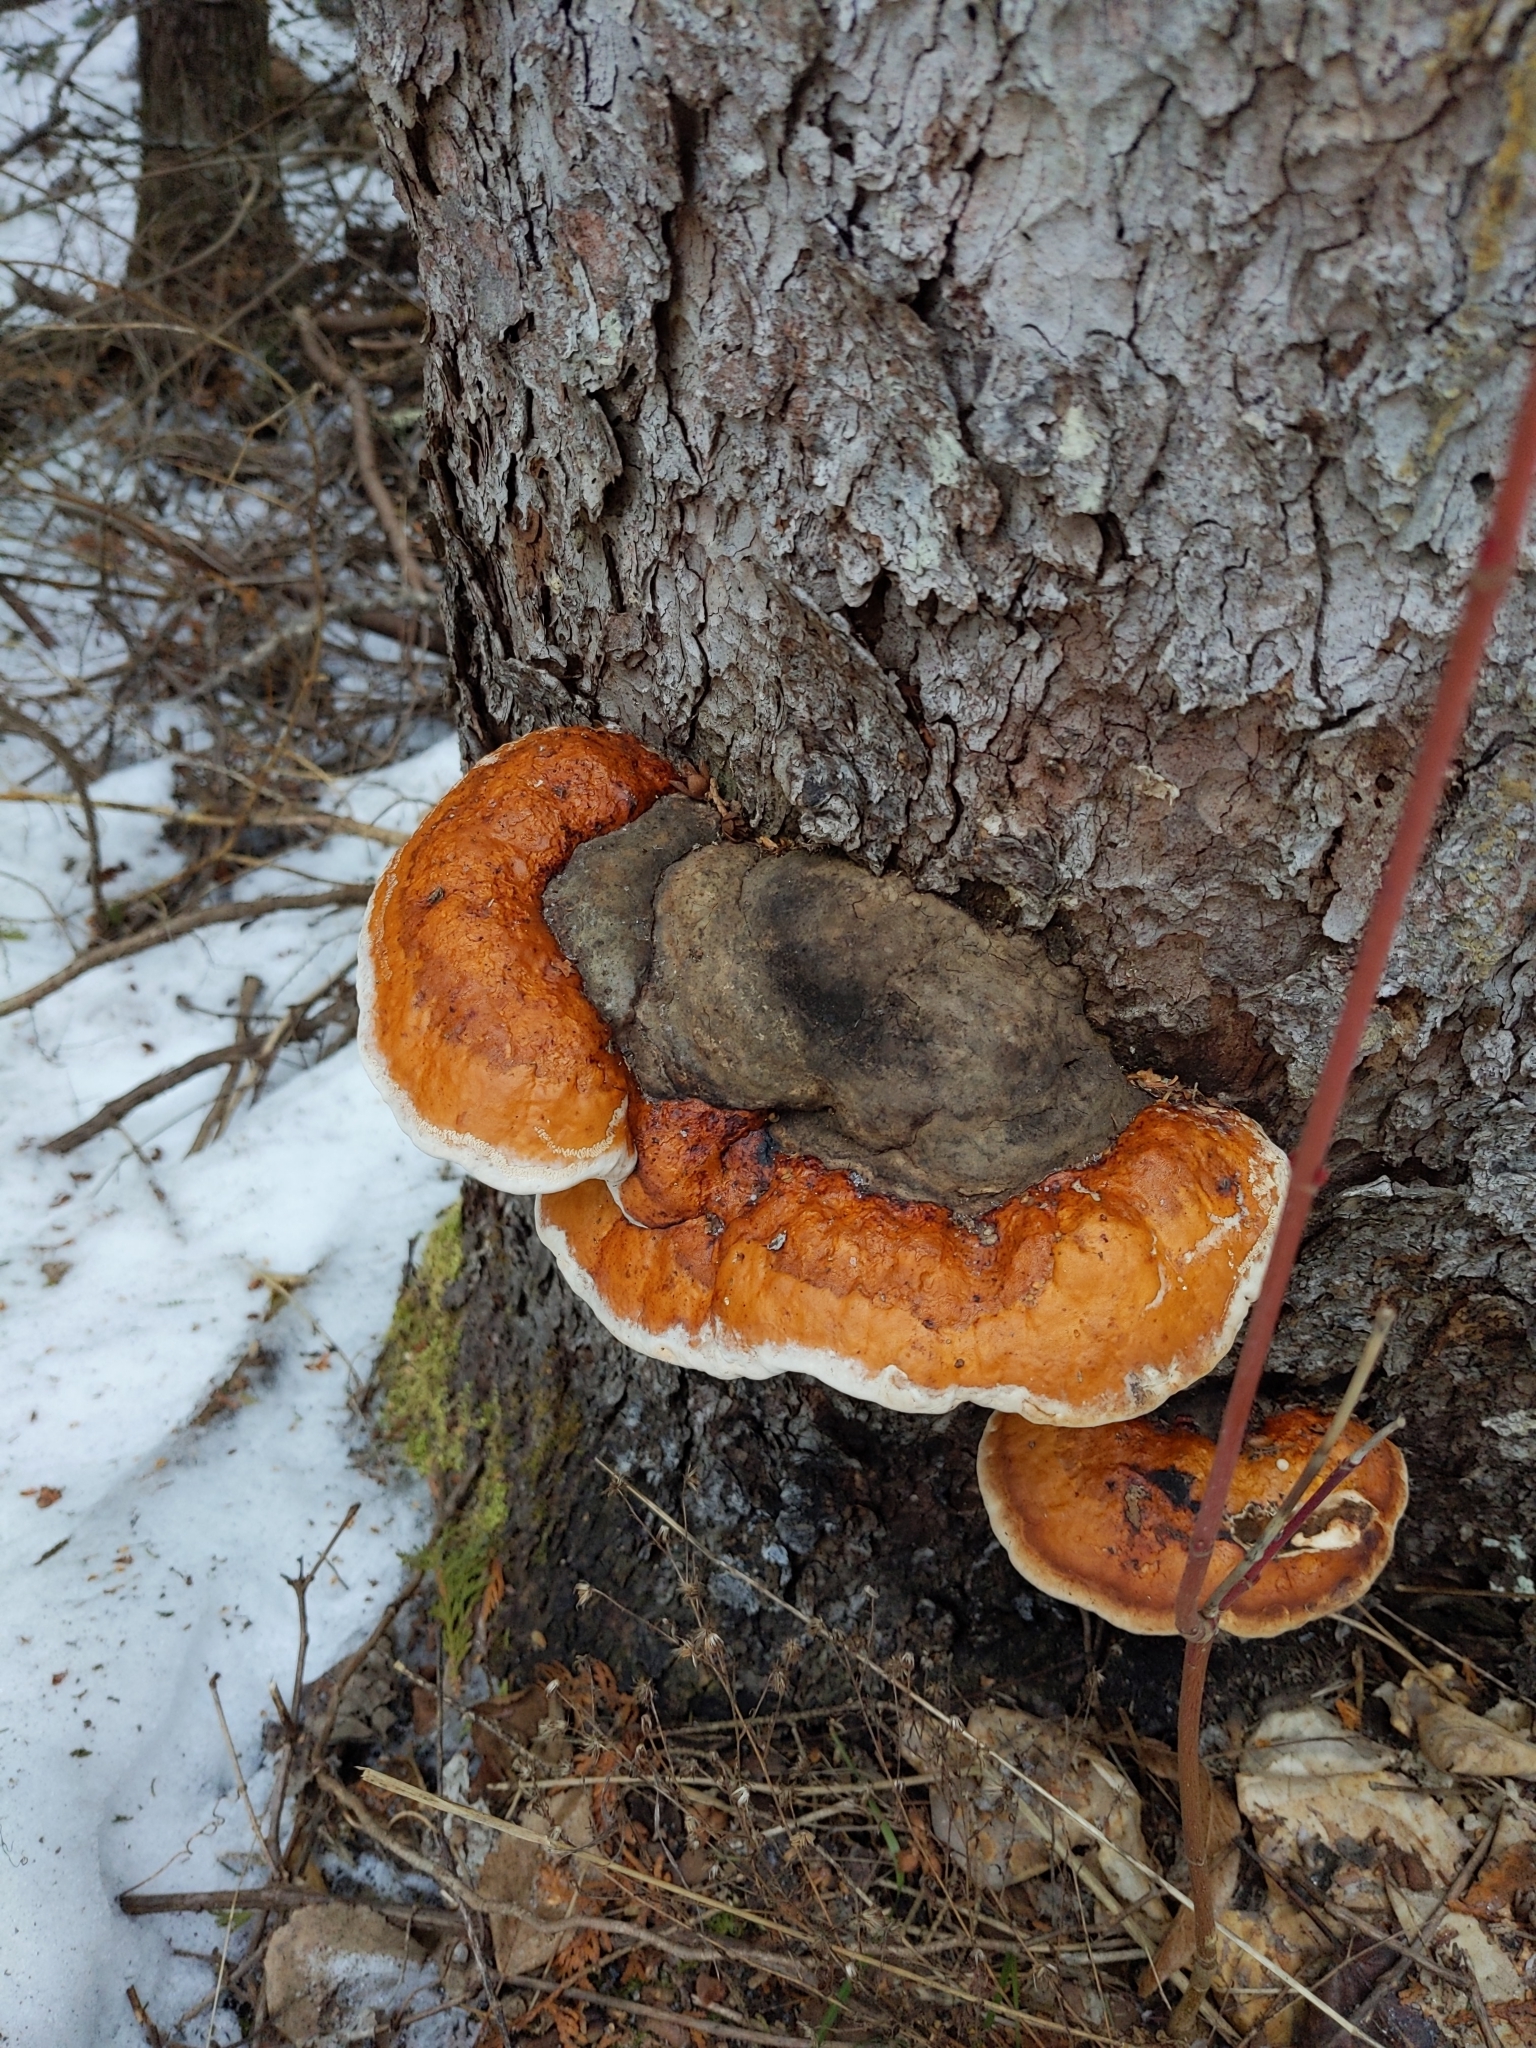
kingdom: Fungi
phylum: Basidiomycota
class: Agaricomycetes
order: Polyporales
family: Fomitopsidaceae
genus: Fomitopsis
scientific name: Fomitopsis mounceae
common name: Northern red belt
